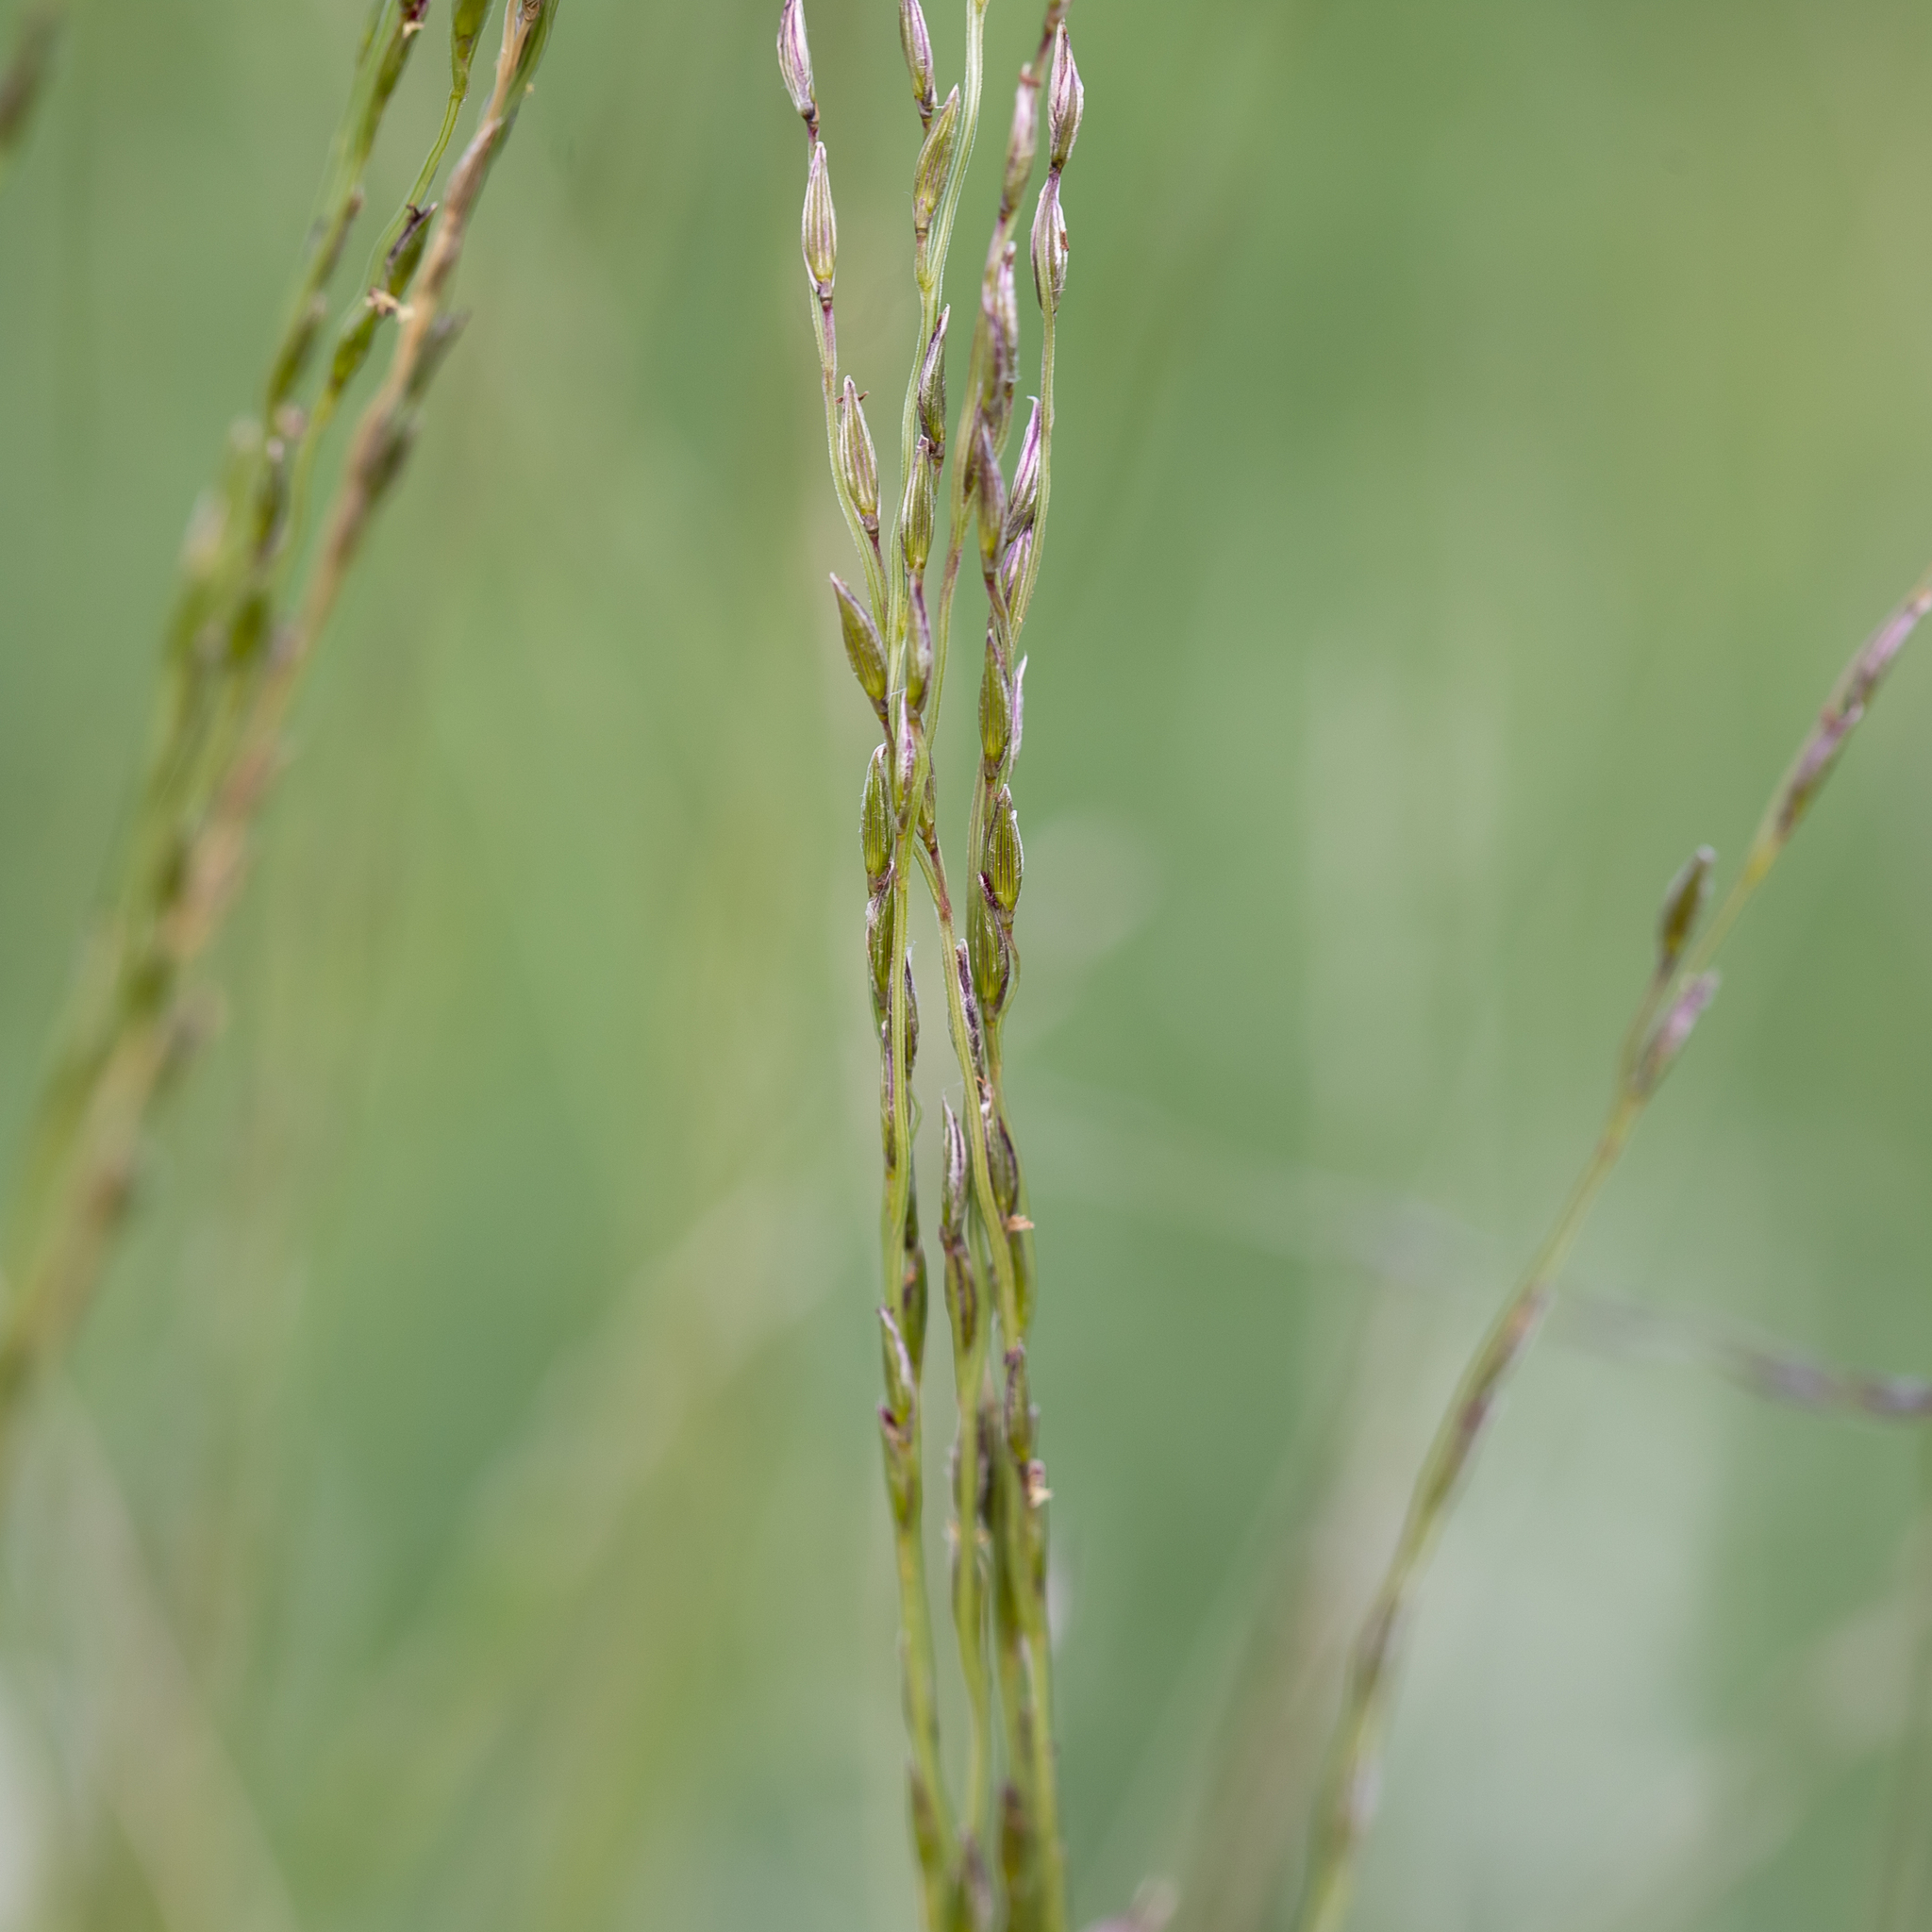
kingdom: Plantae
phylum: Tracheophyta
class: Liliopsida
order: Poales
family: Poaceae
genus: Digitaria
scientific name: Digitaria divaricatissima
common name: Crabgrass
